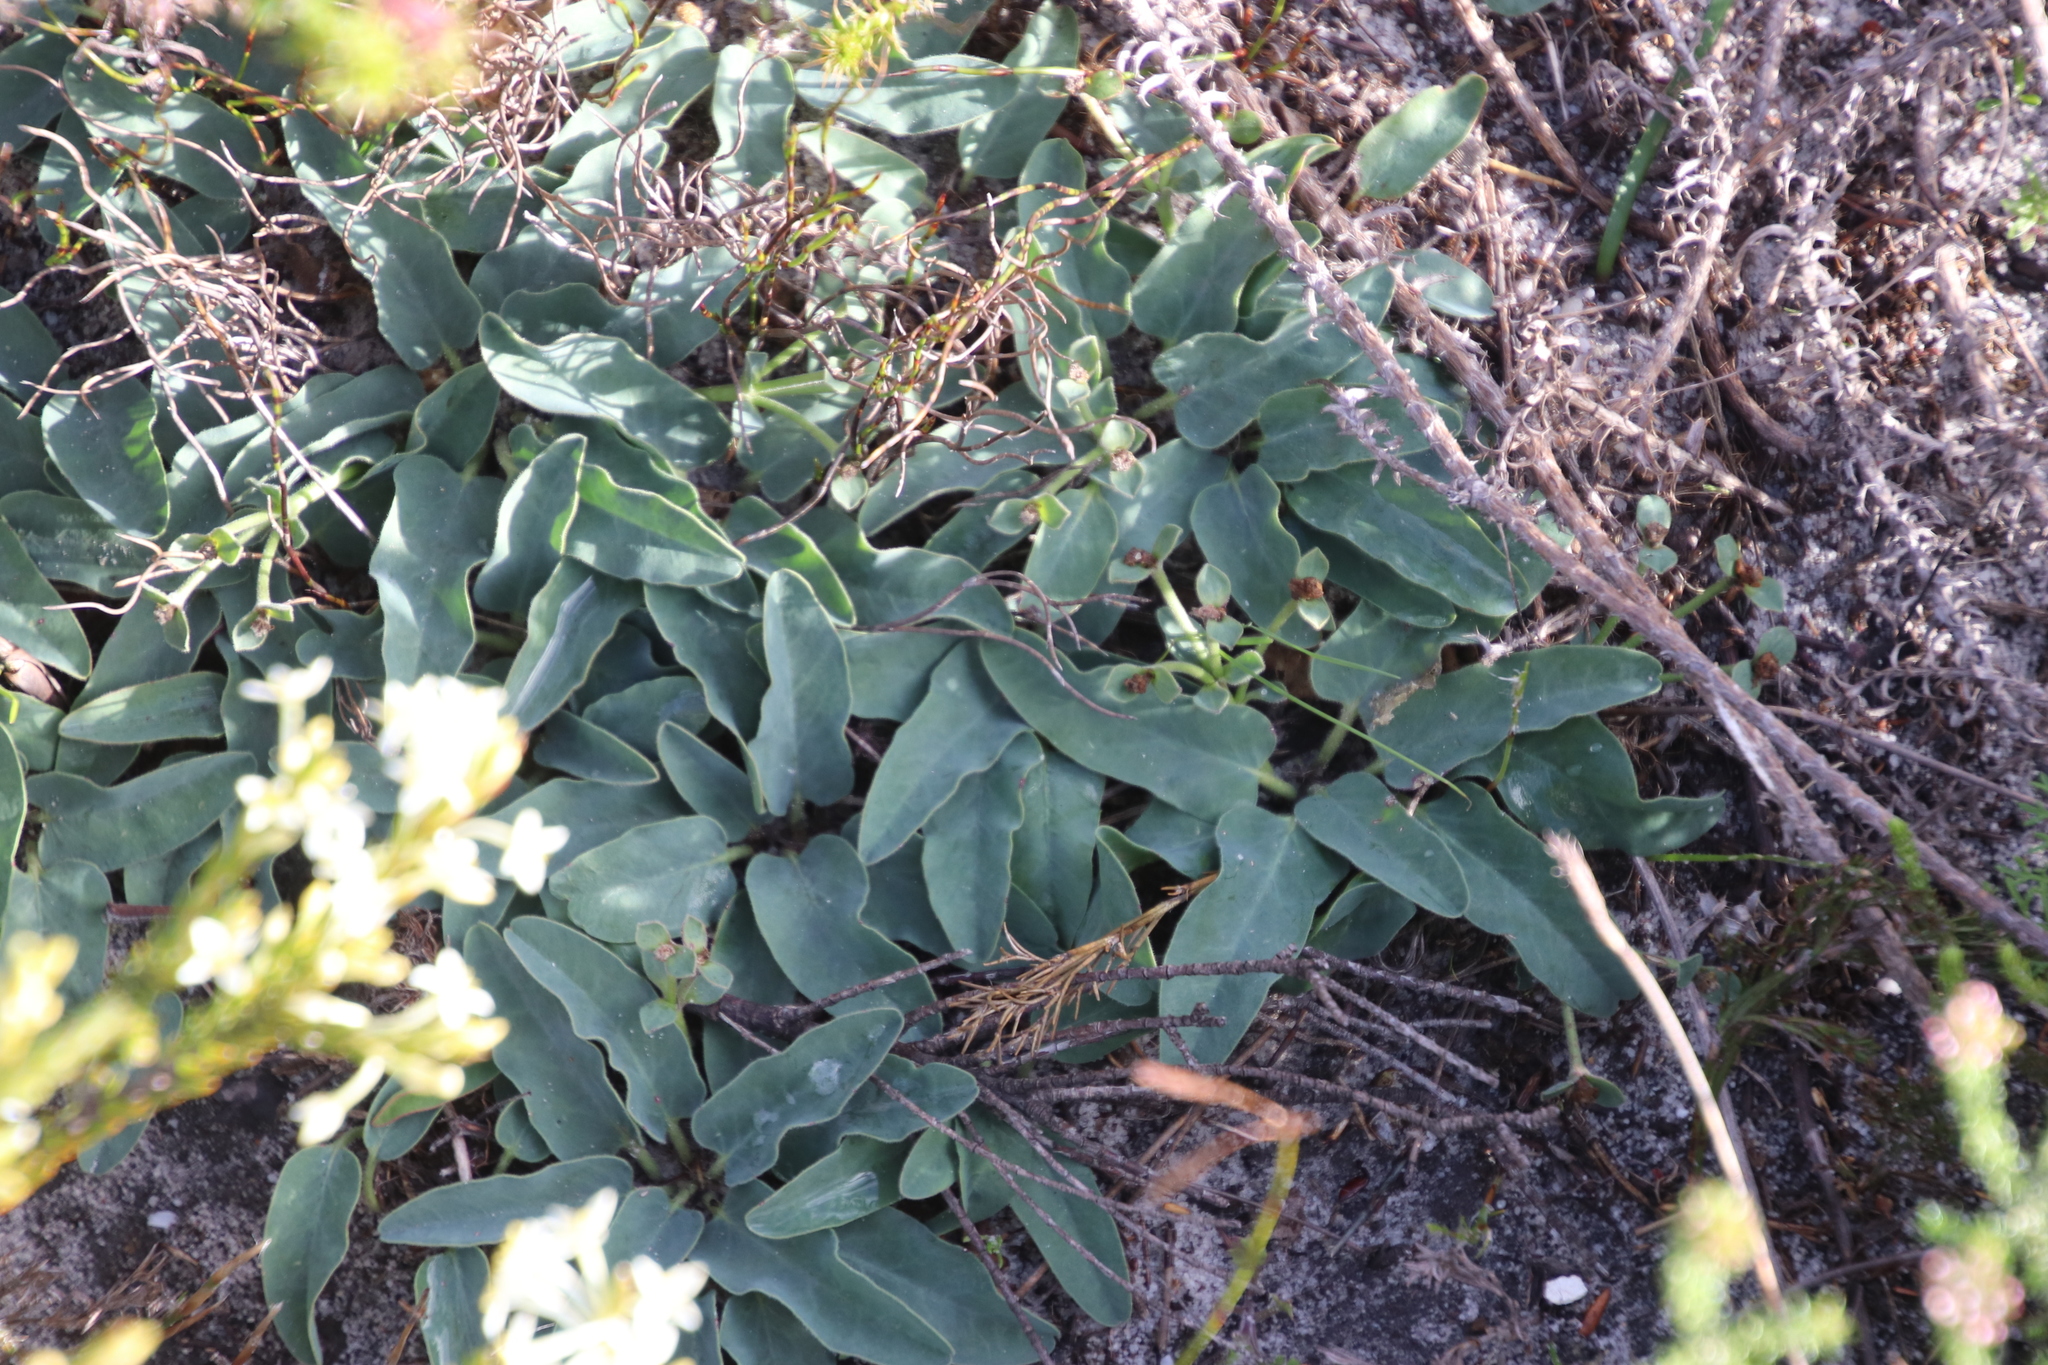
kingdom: Plantae
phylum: Tracheophyta
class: Magnoliopsida
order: Malpighiales
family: Euphorbiaceae
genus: Euphorbia
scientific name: Euphorbia tuberosa
